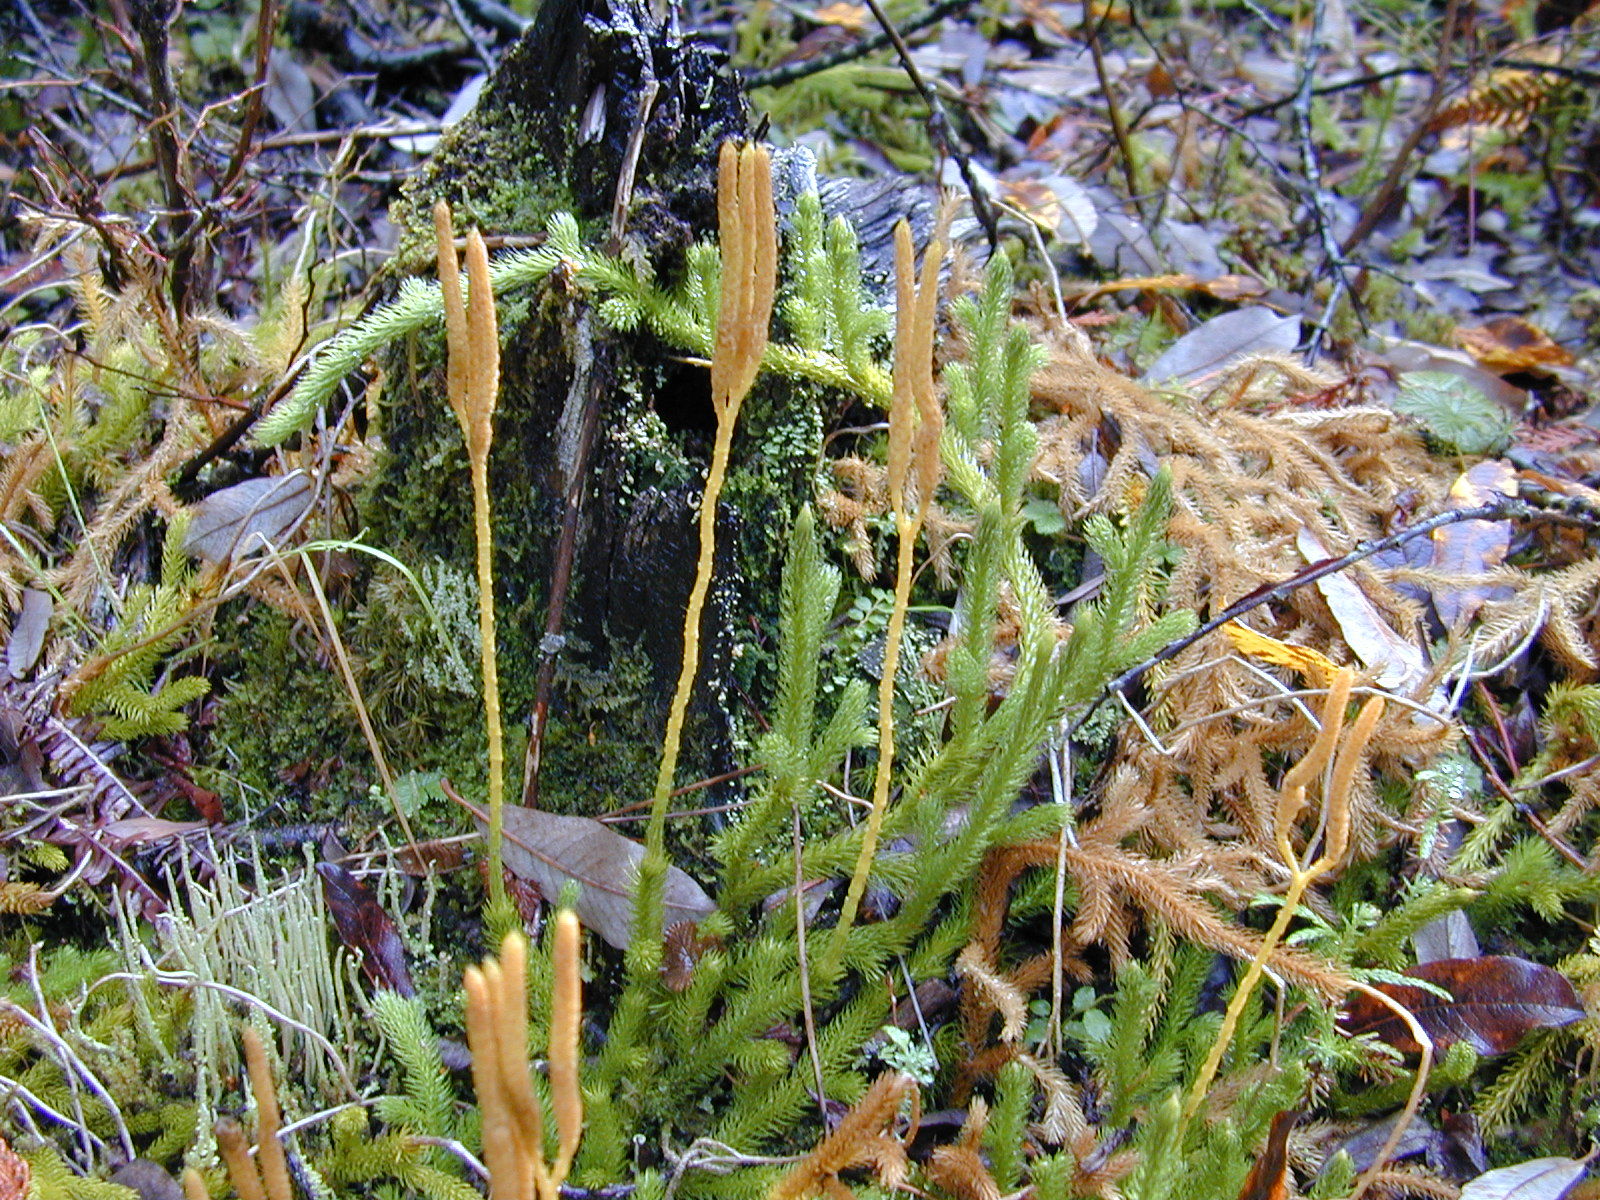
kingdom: Plantae
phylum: Tracheophyta
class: Lycopodiopsida
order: Lycopodiales
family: Lycopodiaceae
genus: Lycopodium
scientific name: Lycopodium clavatum
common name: Stag's-horn clubmoss
